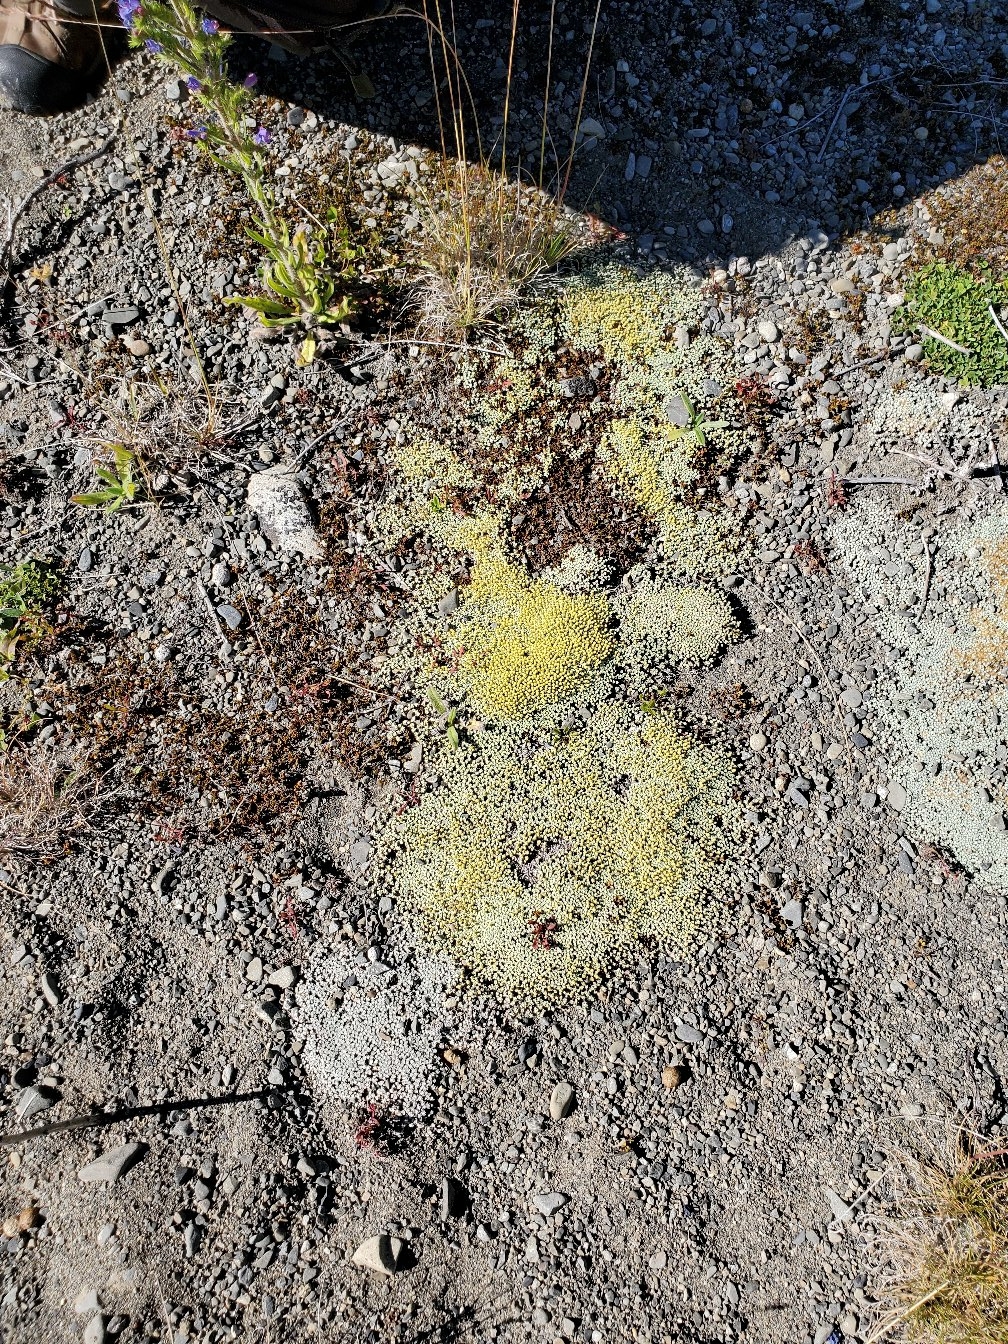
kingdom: Plantae
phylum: Tracheophyta
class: Magnoliopsida
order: Asterales
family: Asteraceae
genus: Raoulia
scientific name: Raoulia australis
